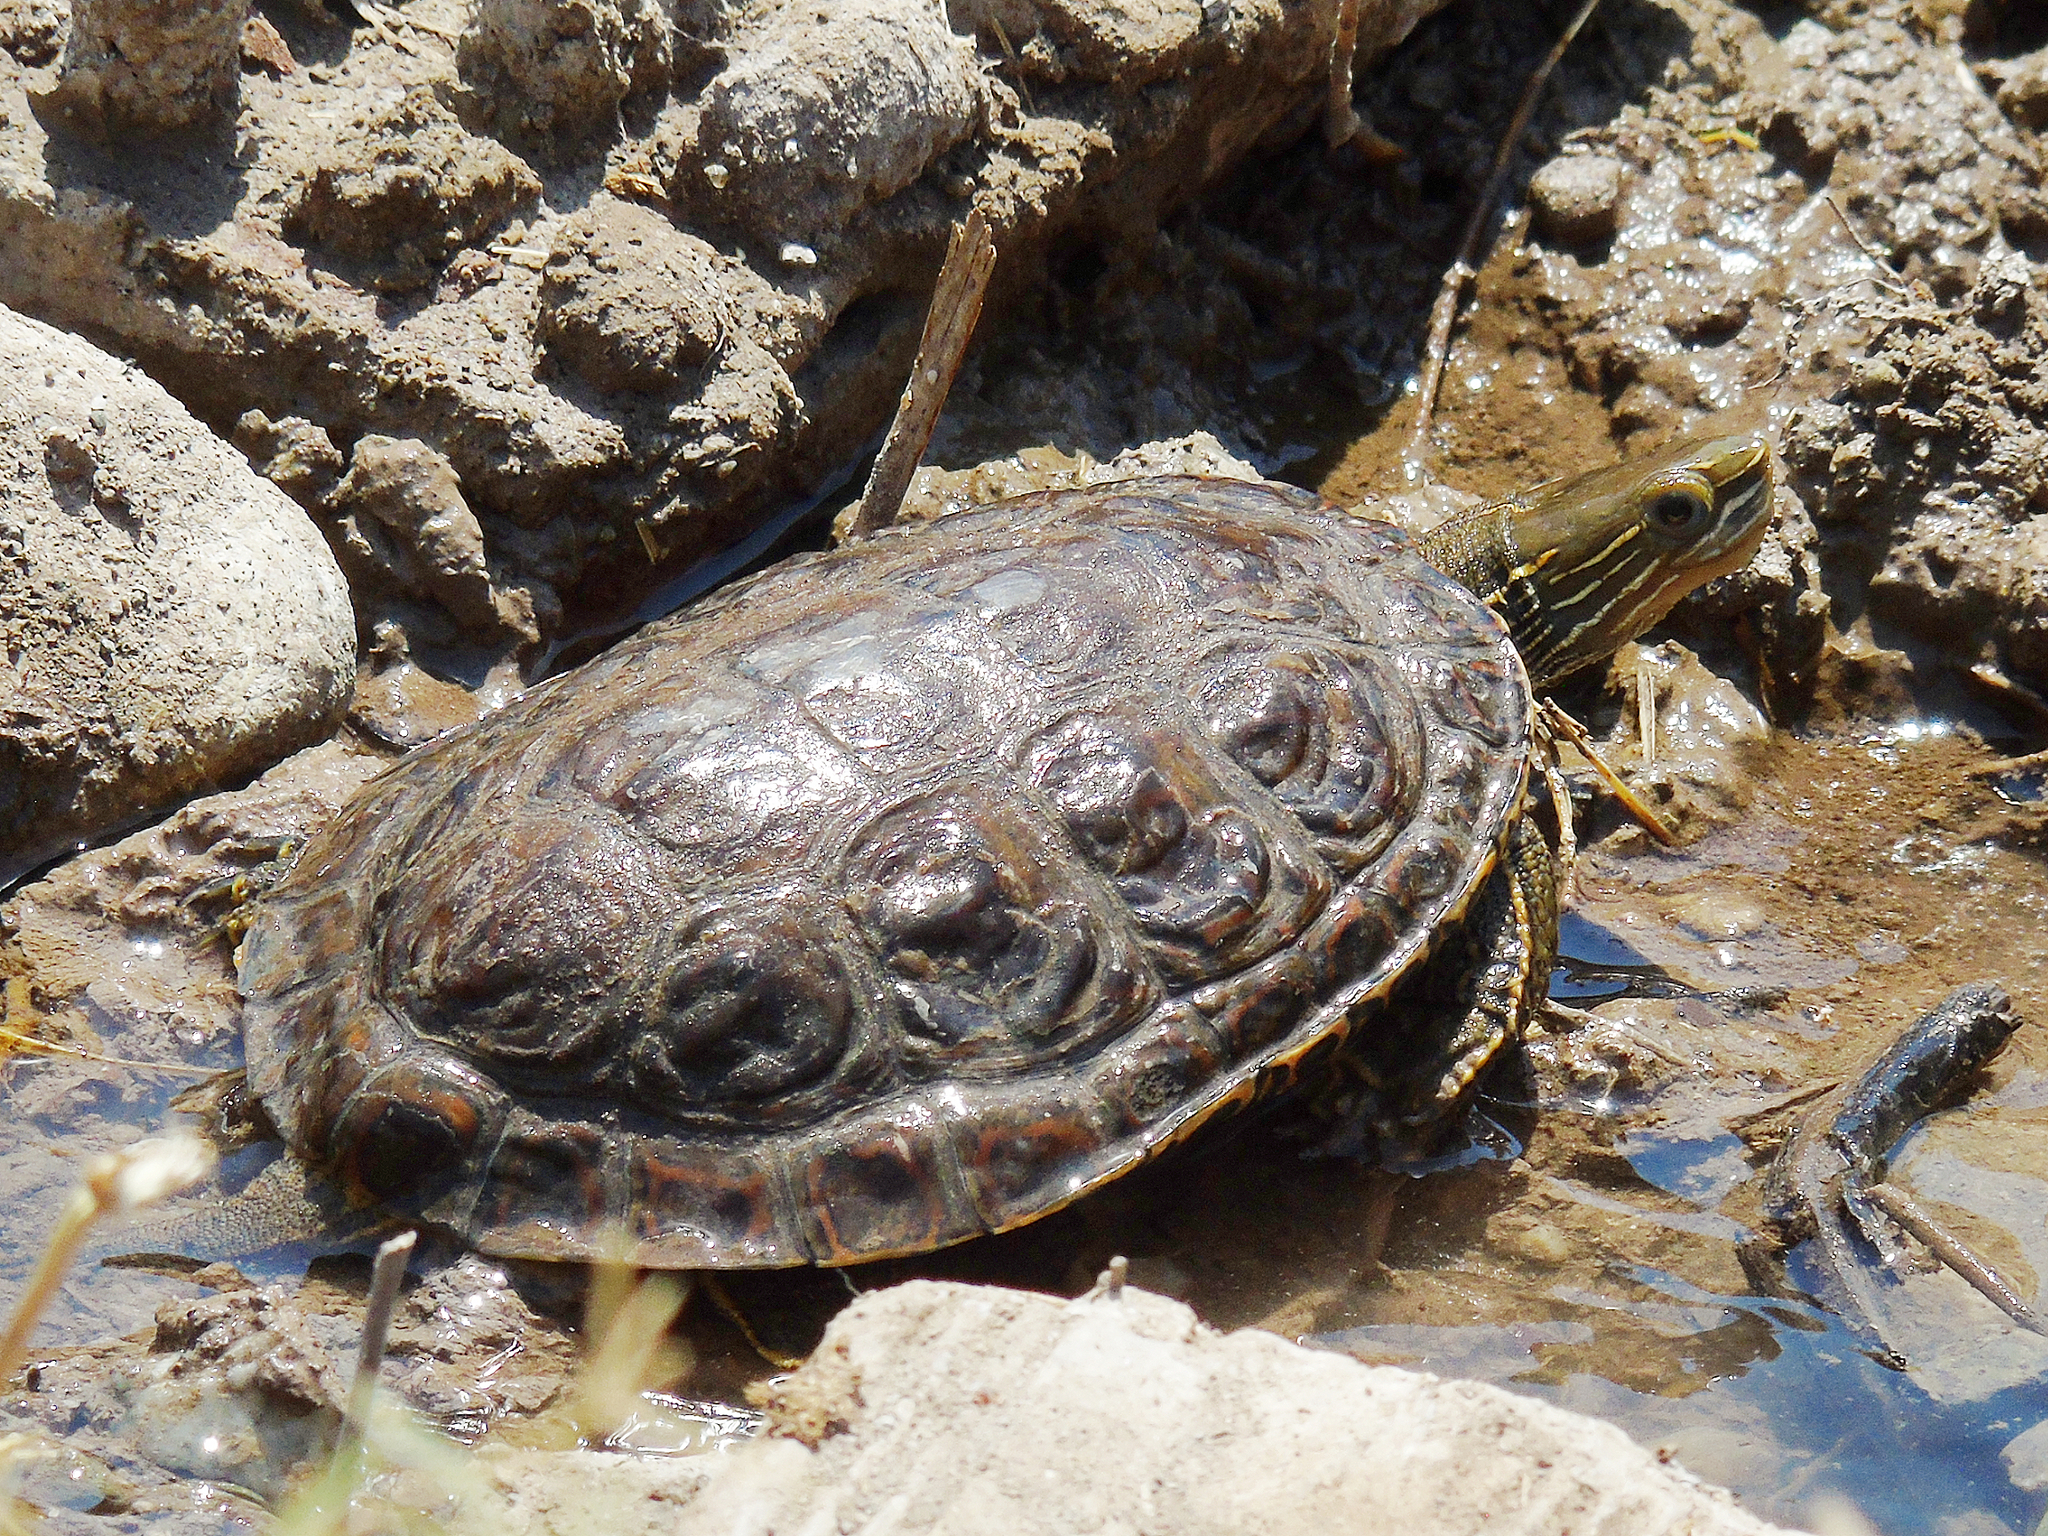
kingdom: Animalia
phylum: Chordata
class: Testudines
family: Geoemydidae
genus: Mauremys
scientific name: Mauremys caspica
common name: Caspian turtle
